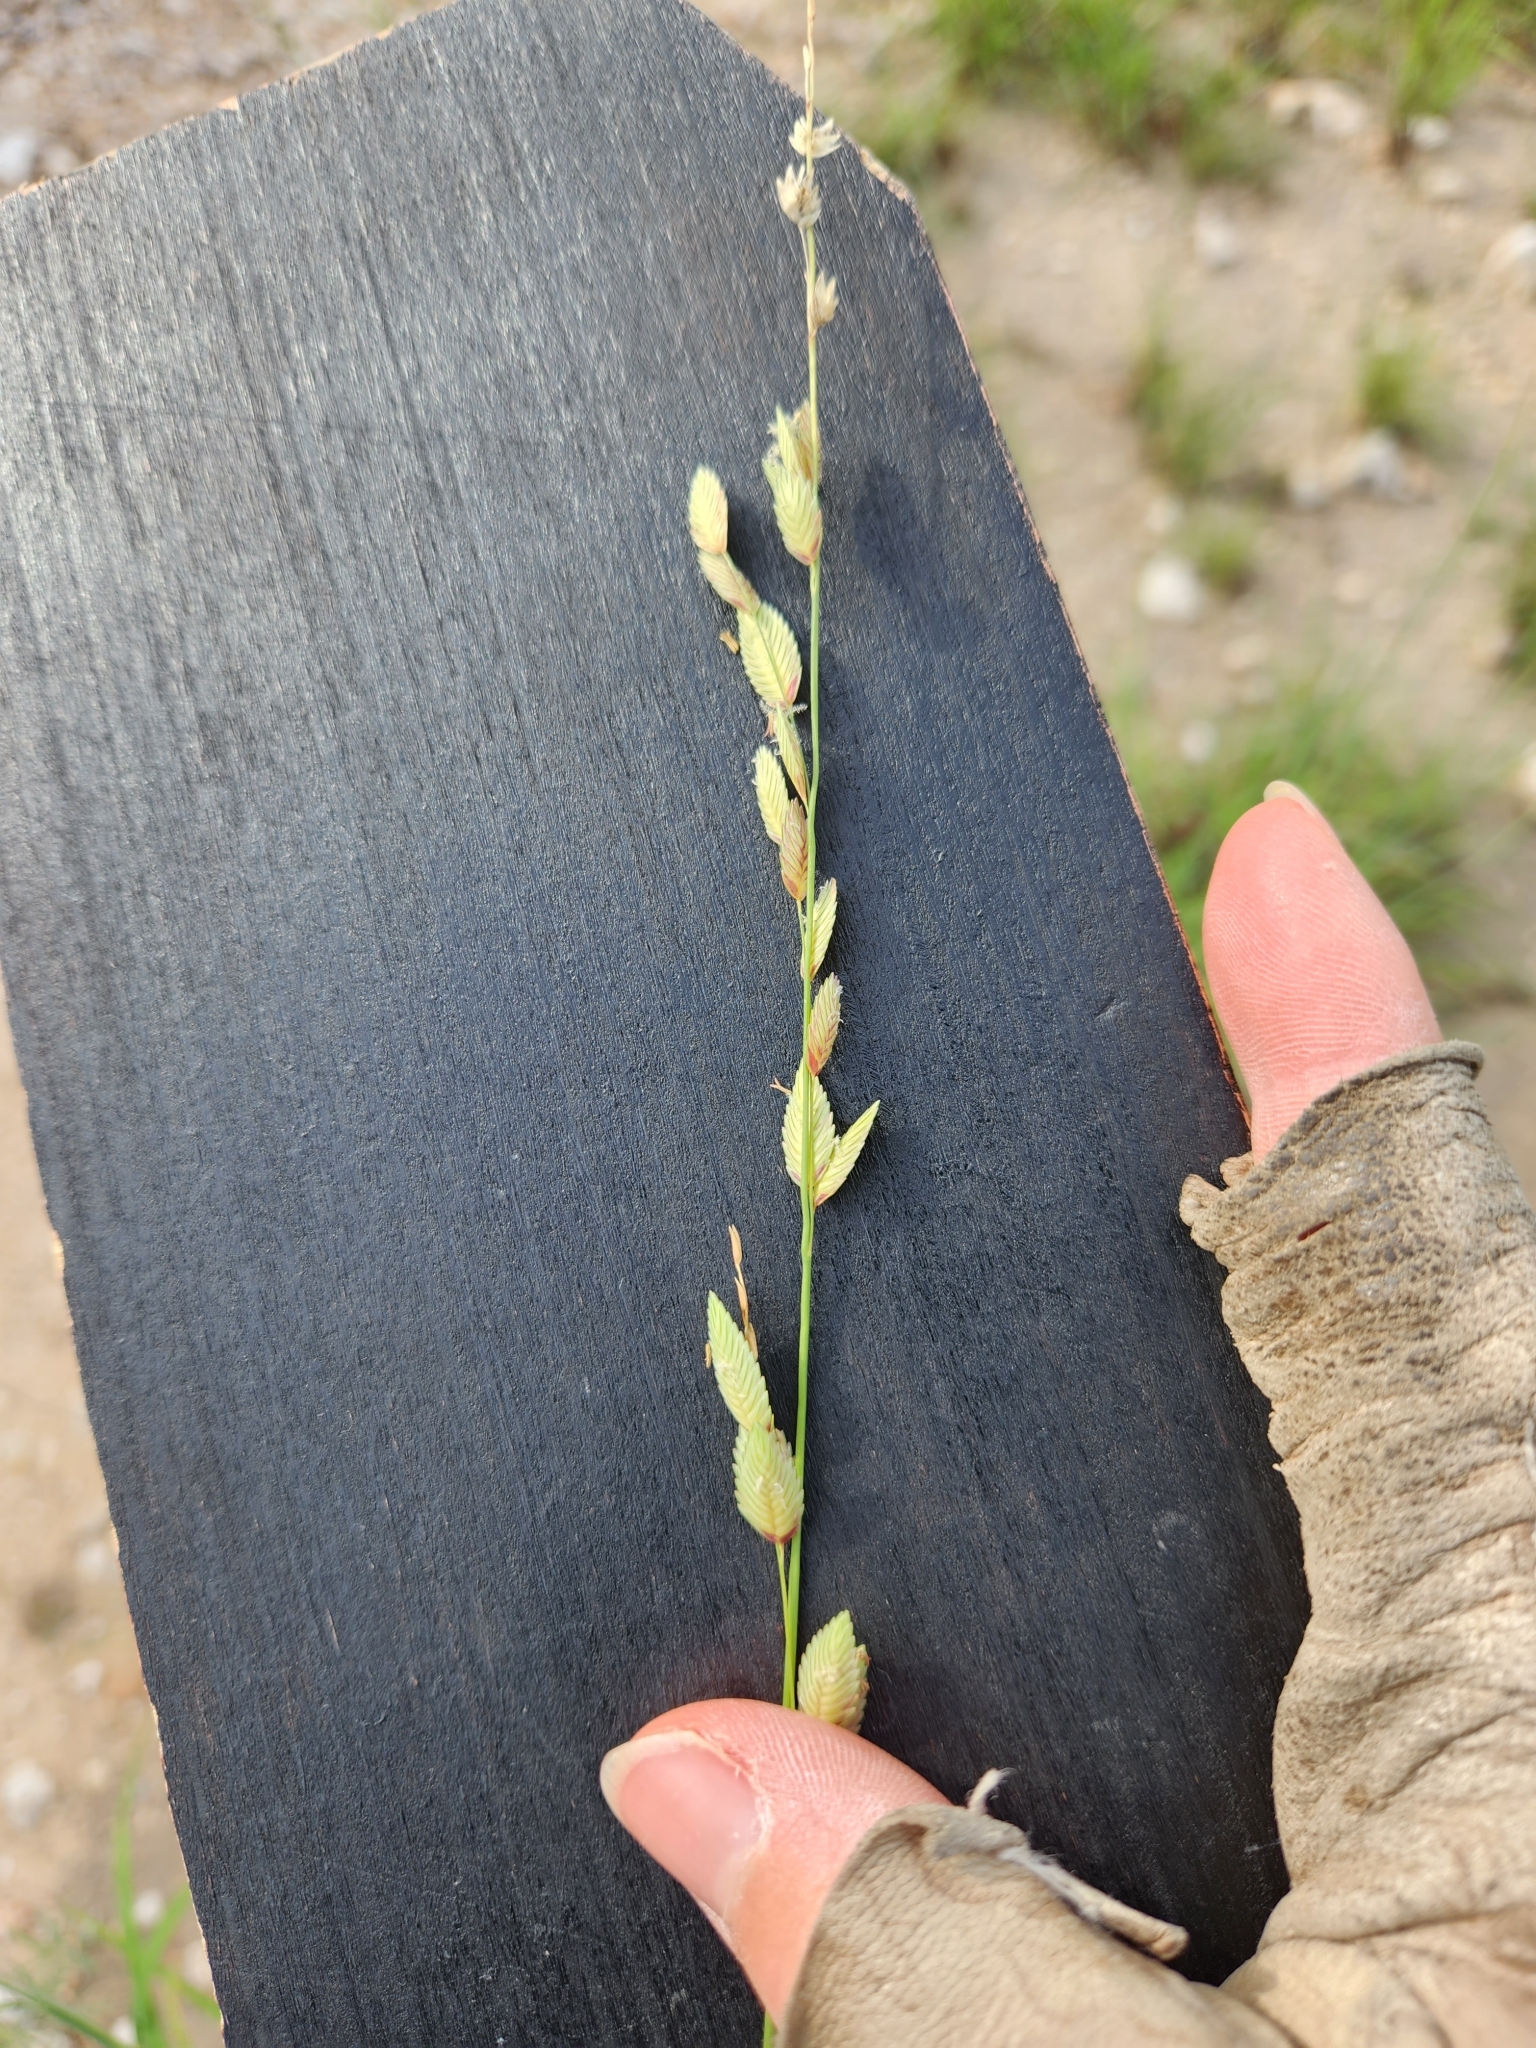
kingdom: Plantae
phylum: Tracheophyta
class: Liliopsida
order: Poales
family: Poaceae
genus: Eragrostis
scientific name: Eragrostis superba
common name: Wilman lovegrass
